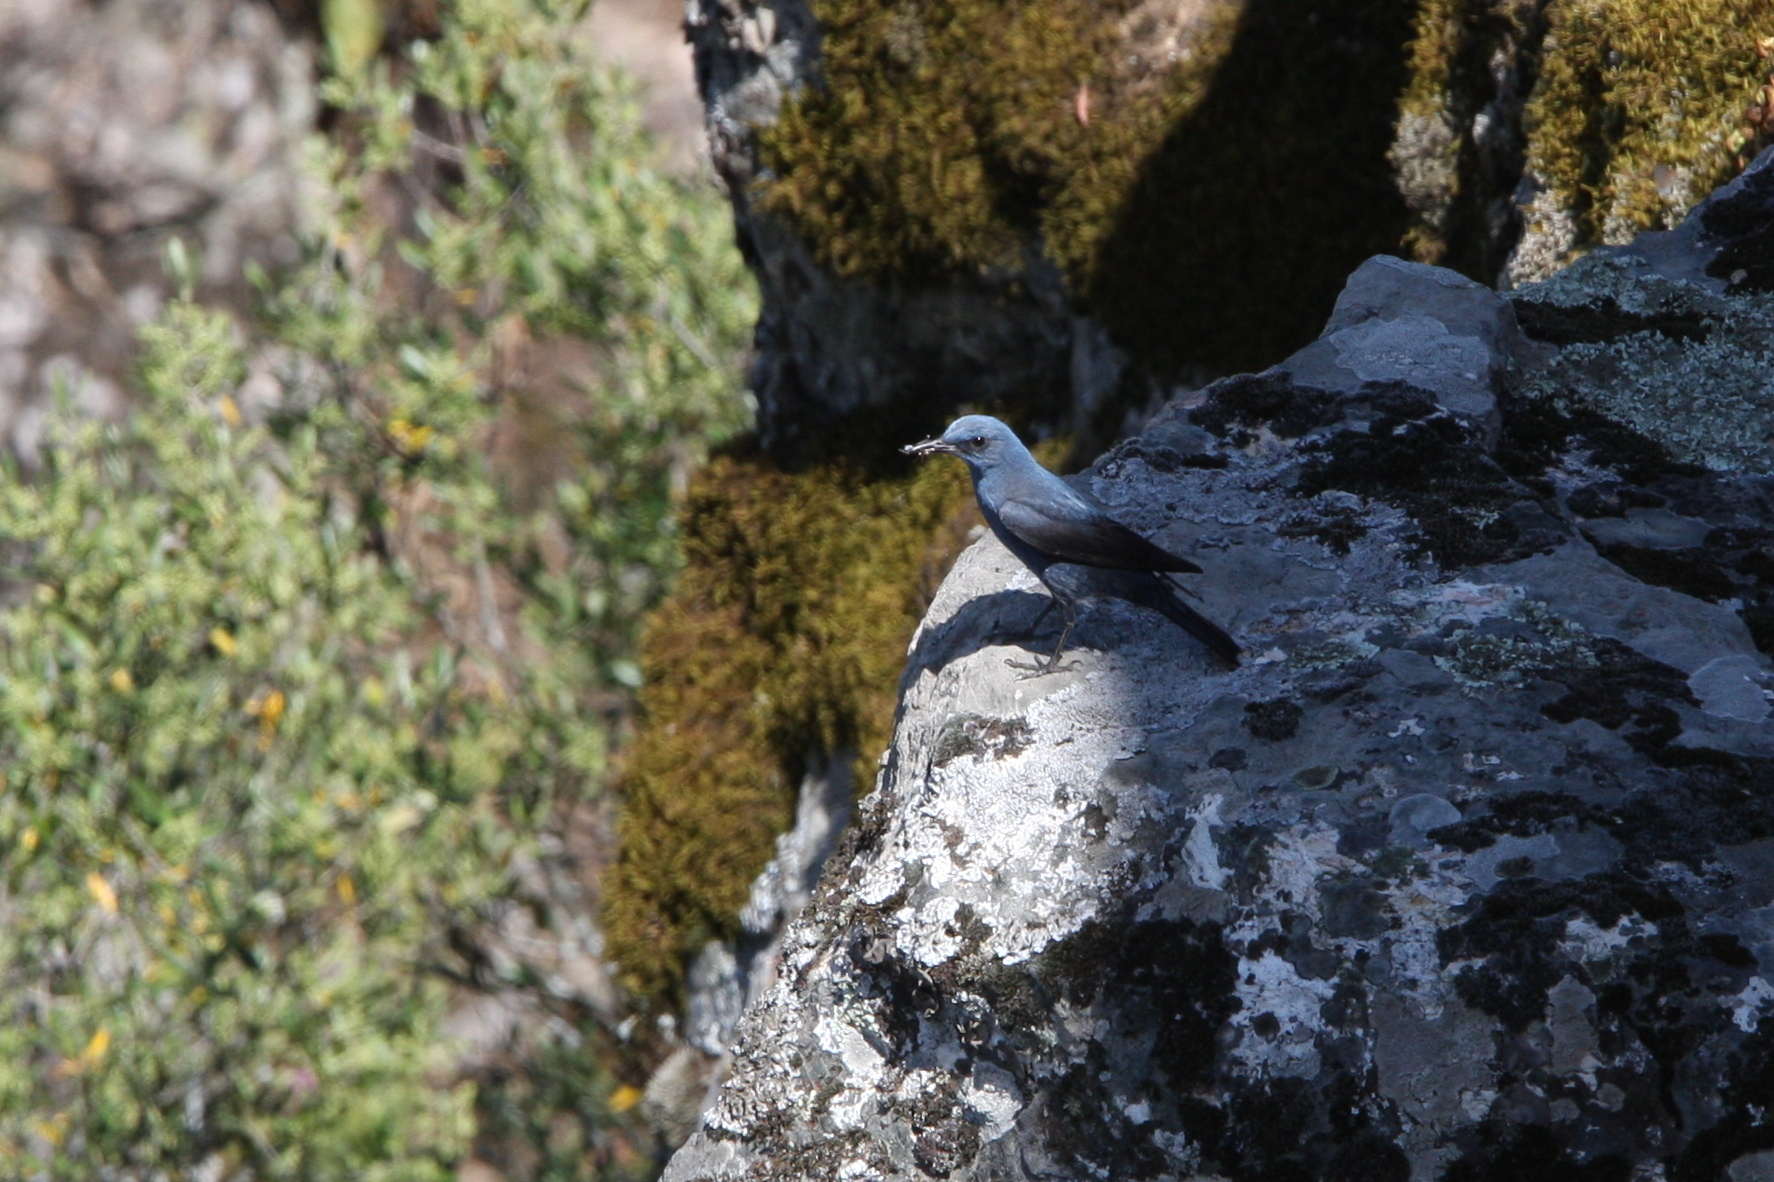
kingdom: Animalia
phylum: Chordata
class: Aves
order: Passeriformes
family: Muscicapidae
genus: Monticola
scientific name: Monticola solitarius
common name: Blue rock thrush
